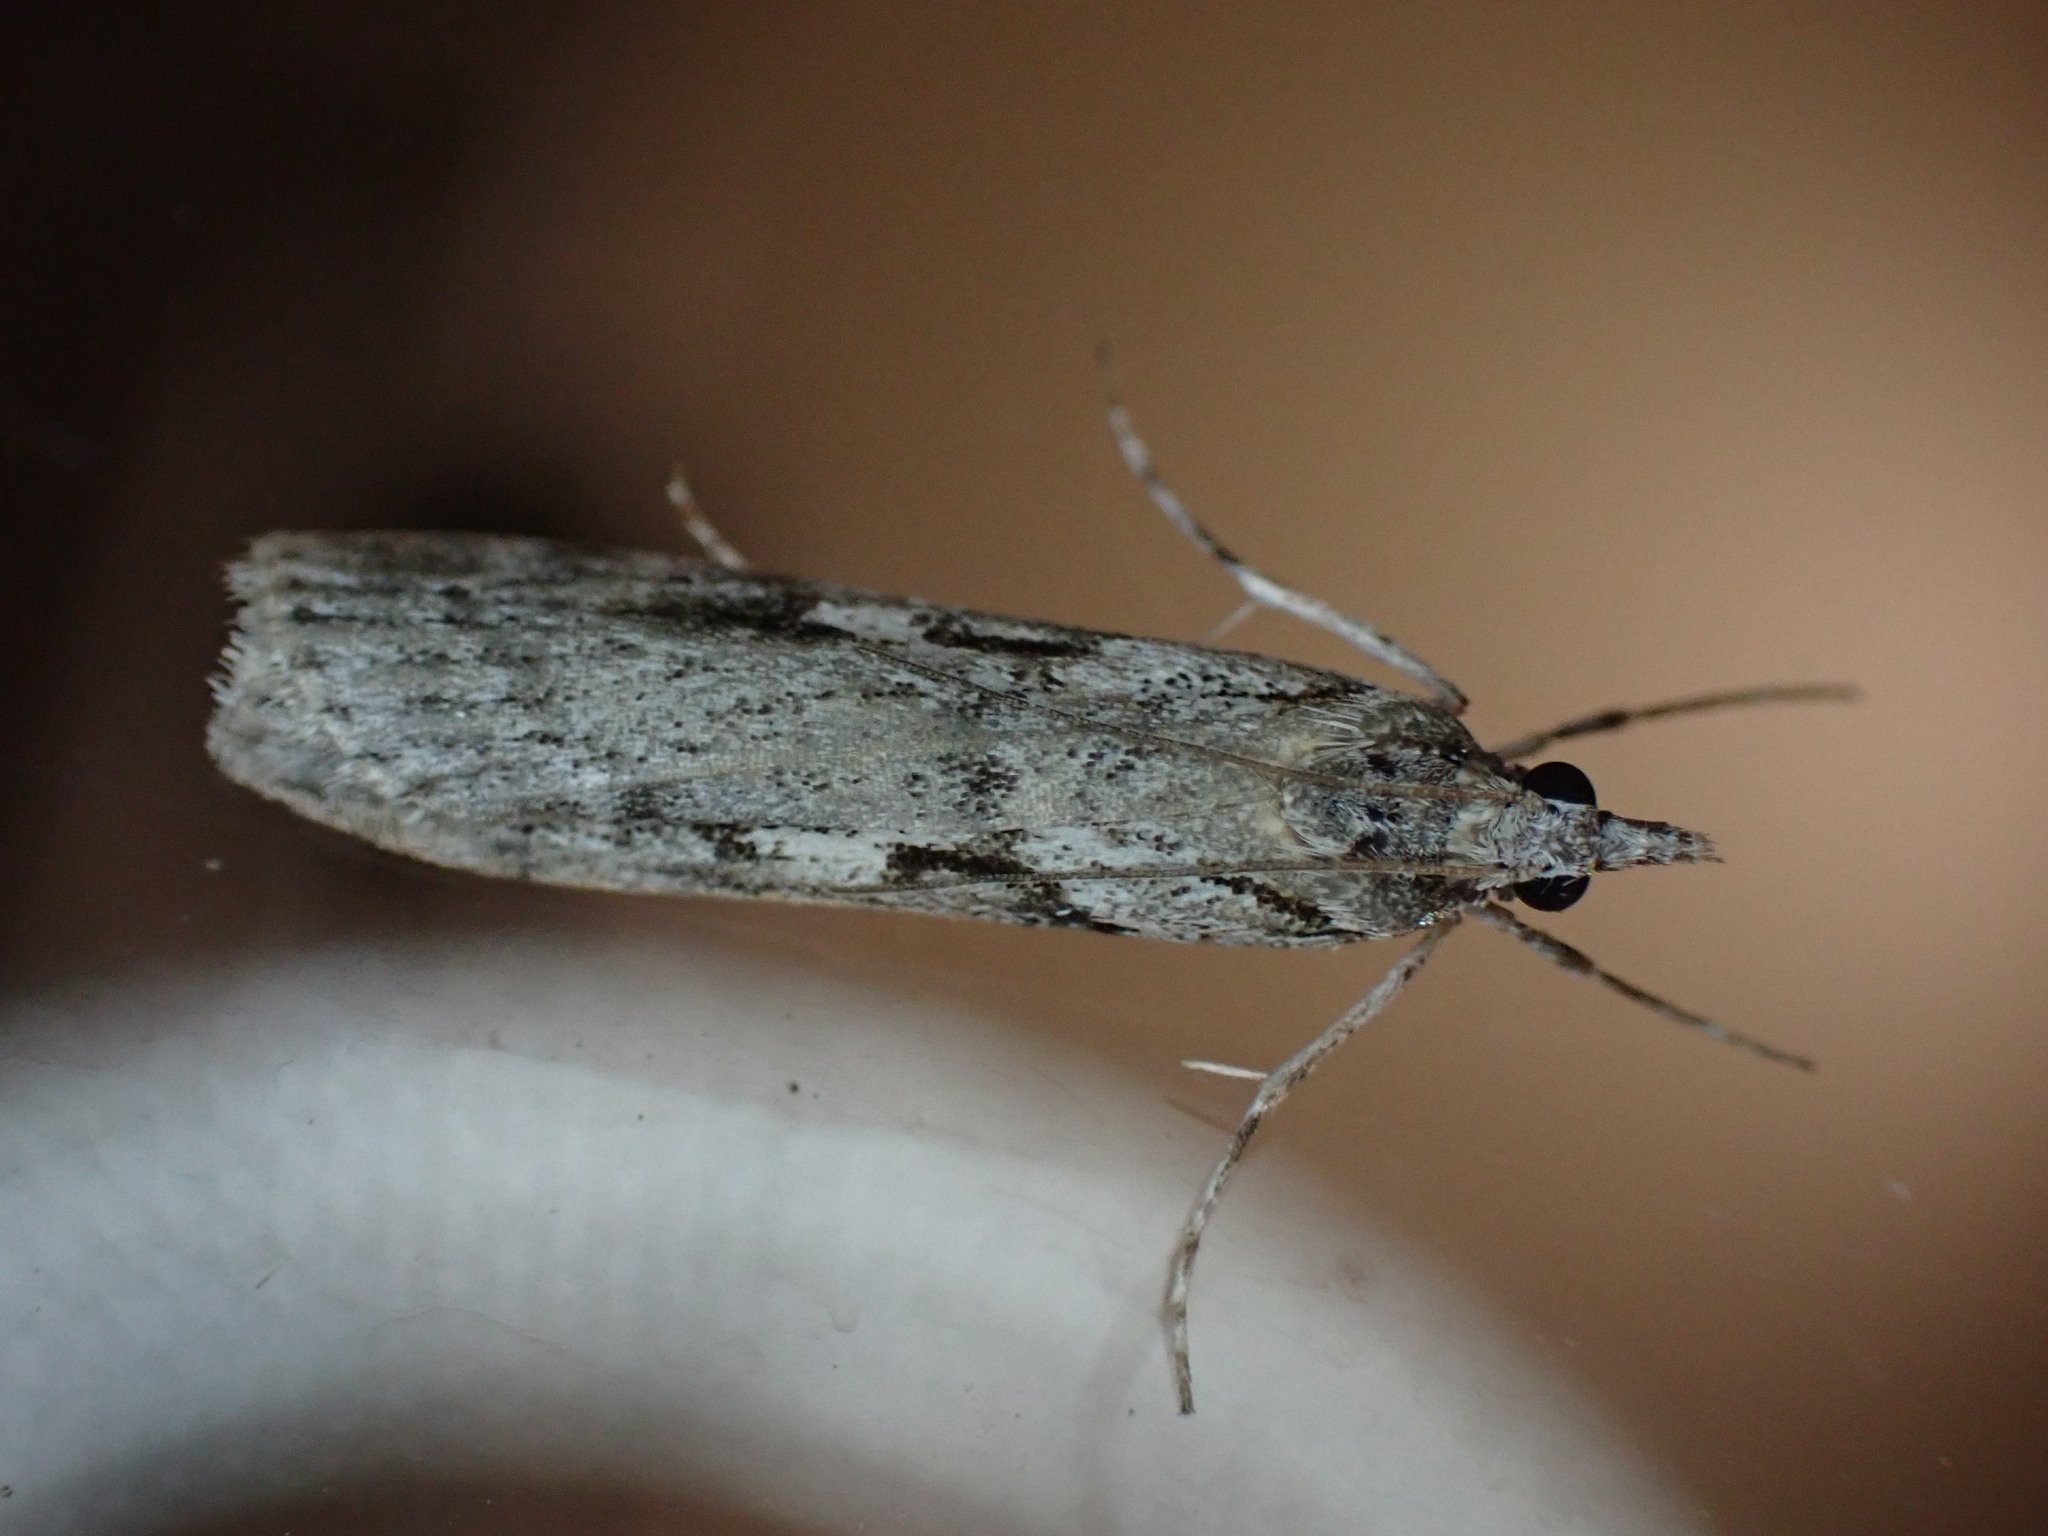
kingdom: Animalia
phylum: Arthropoda
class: Insecta
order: Lepidoptera
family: Crambidae
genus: Scoparia
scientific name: Scoparia halopis
